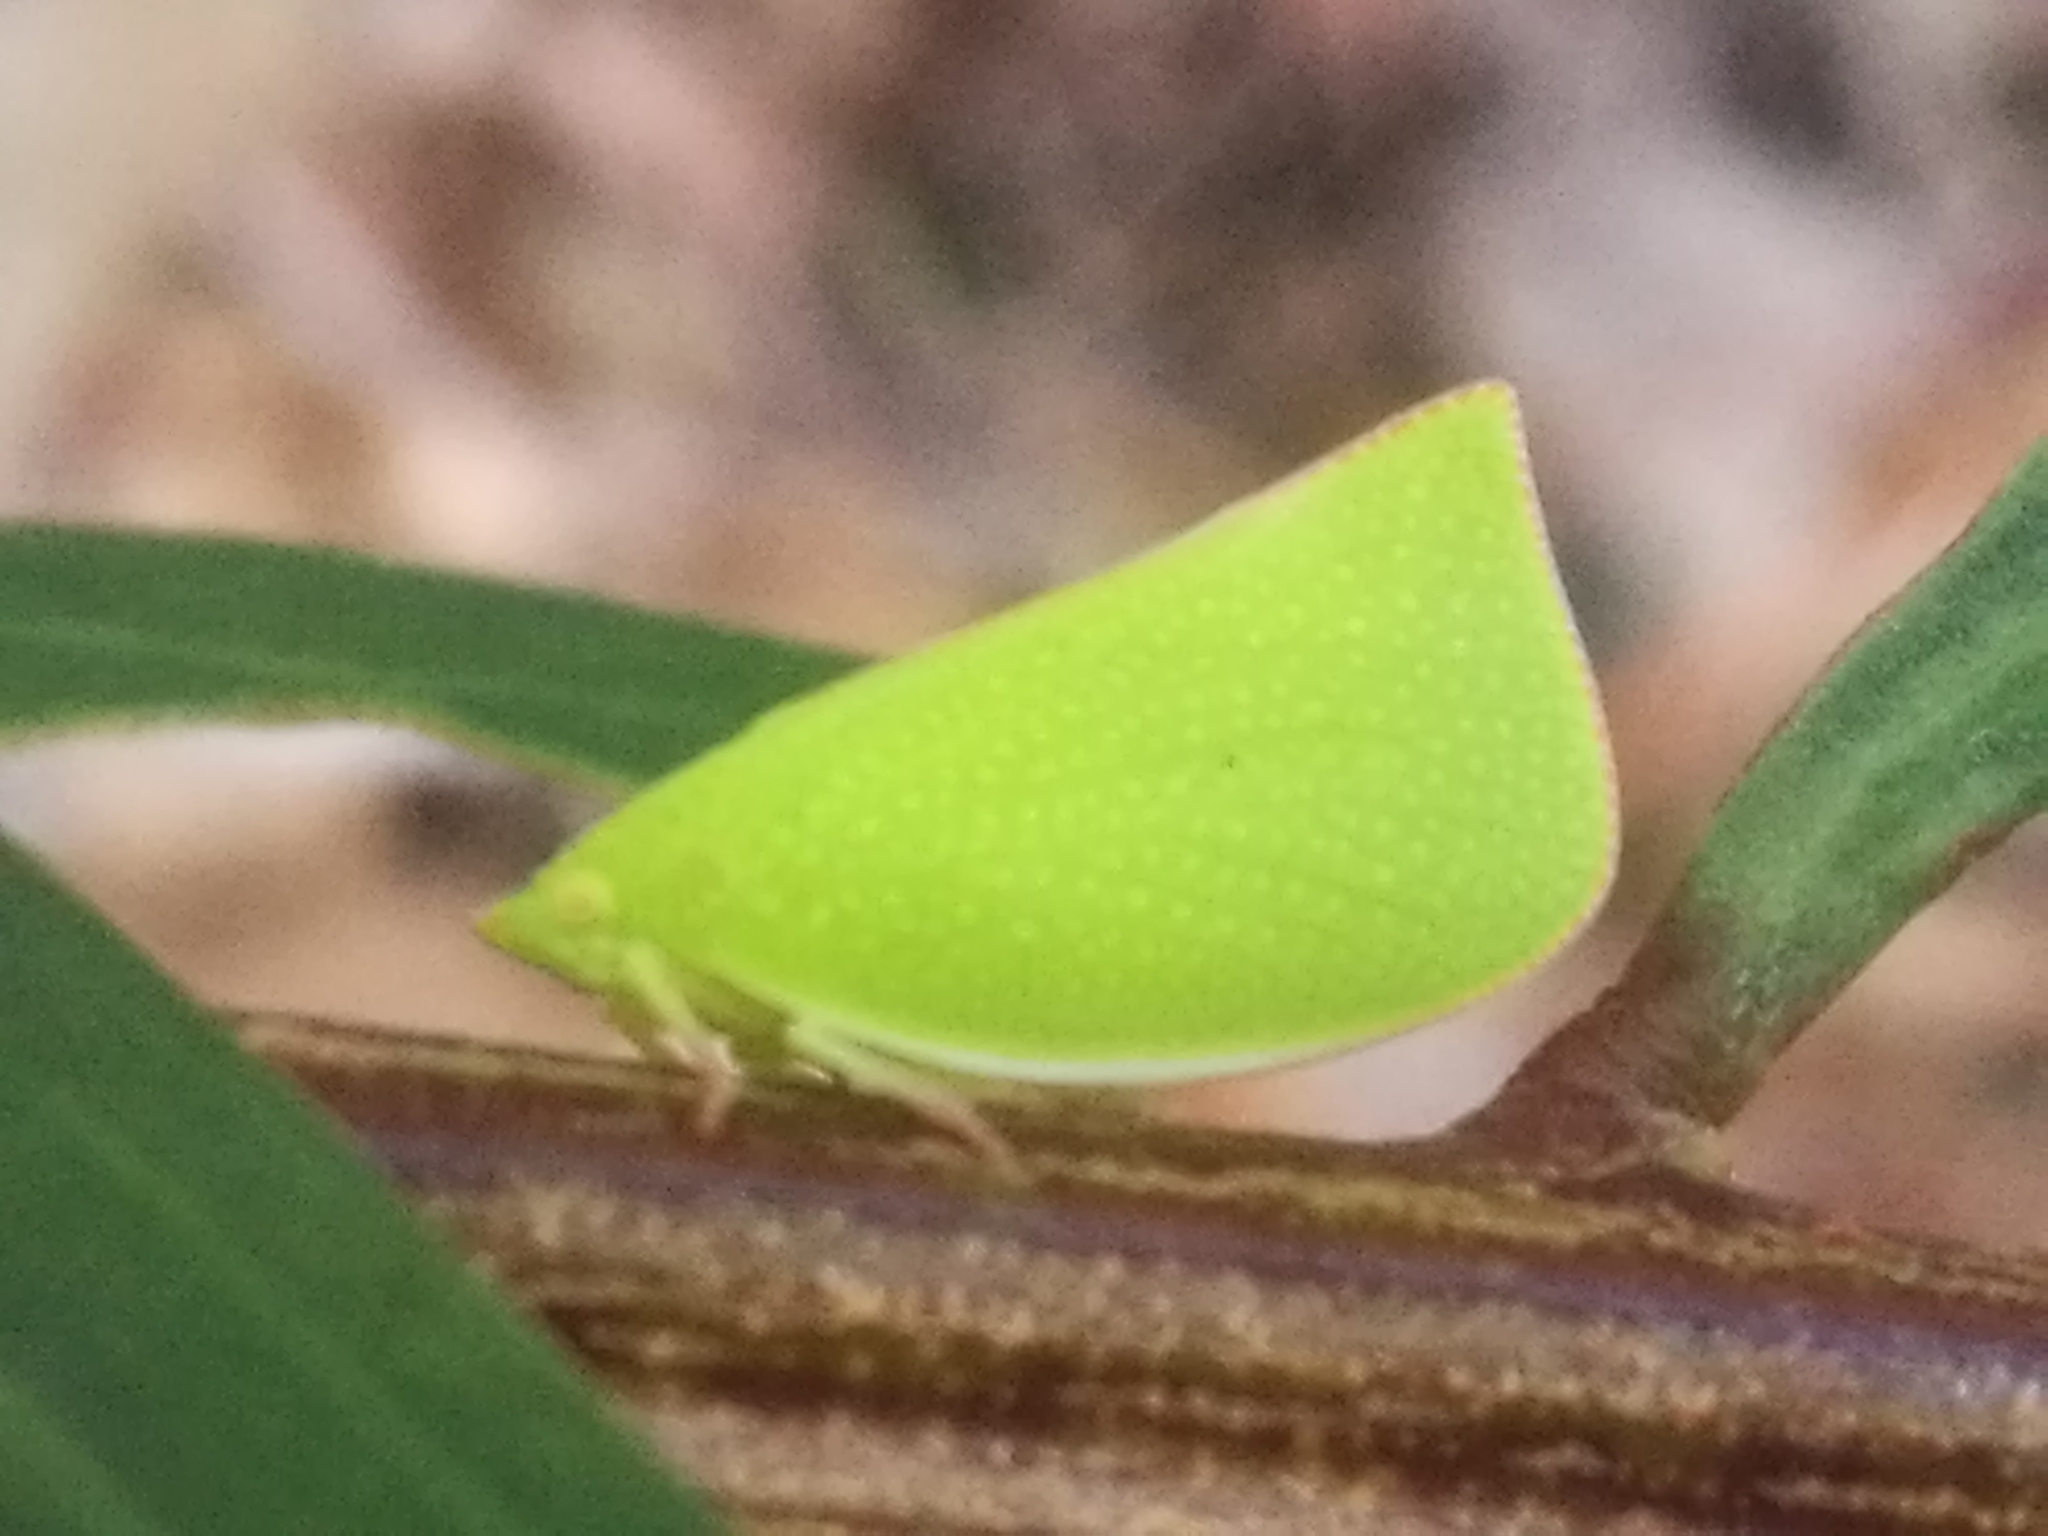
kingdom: Animalia
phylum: Arthropoda
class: Insecta
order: Hemiptera
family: Flatidae
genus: Siphanta
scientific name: Siphanta acuta
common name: Torpedo bug
